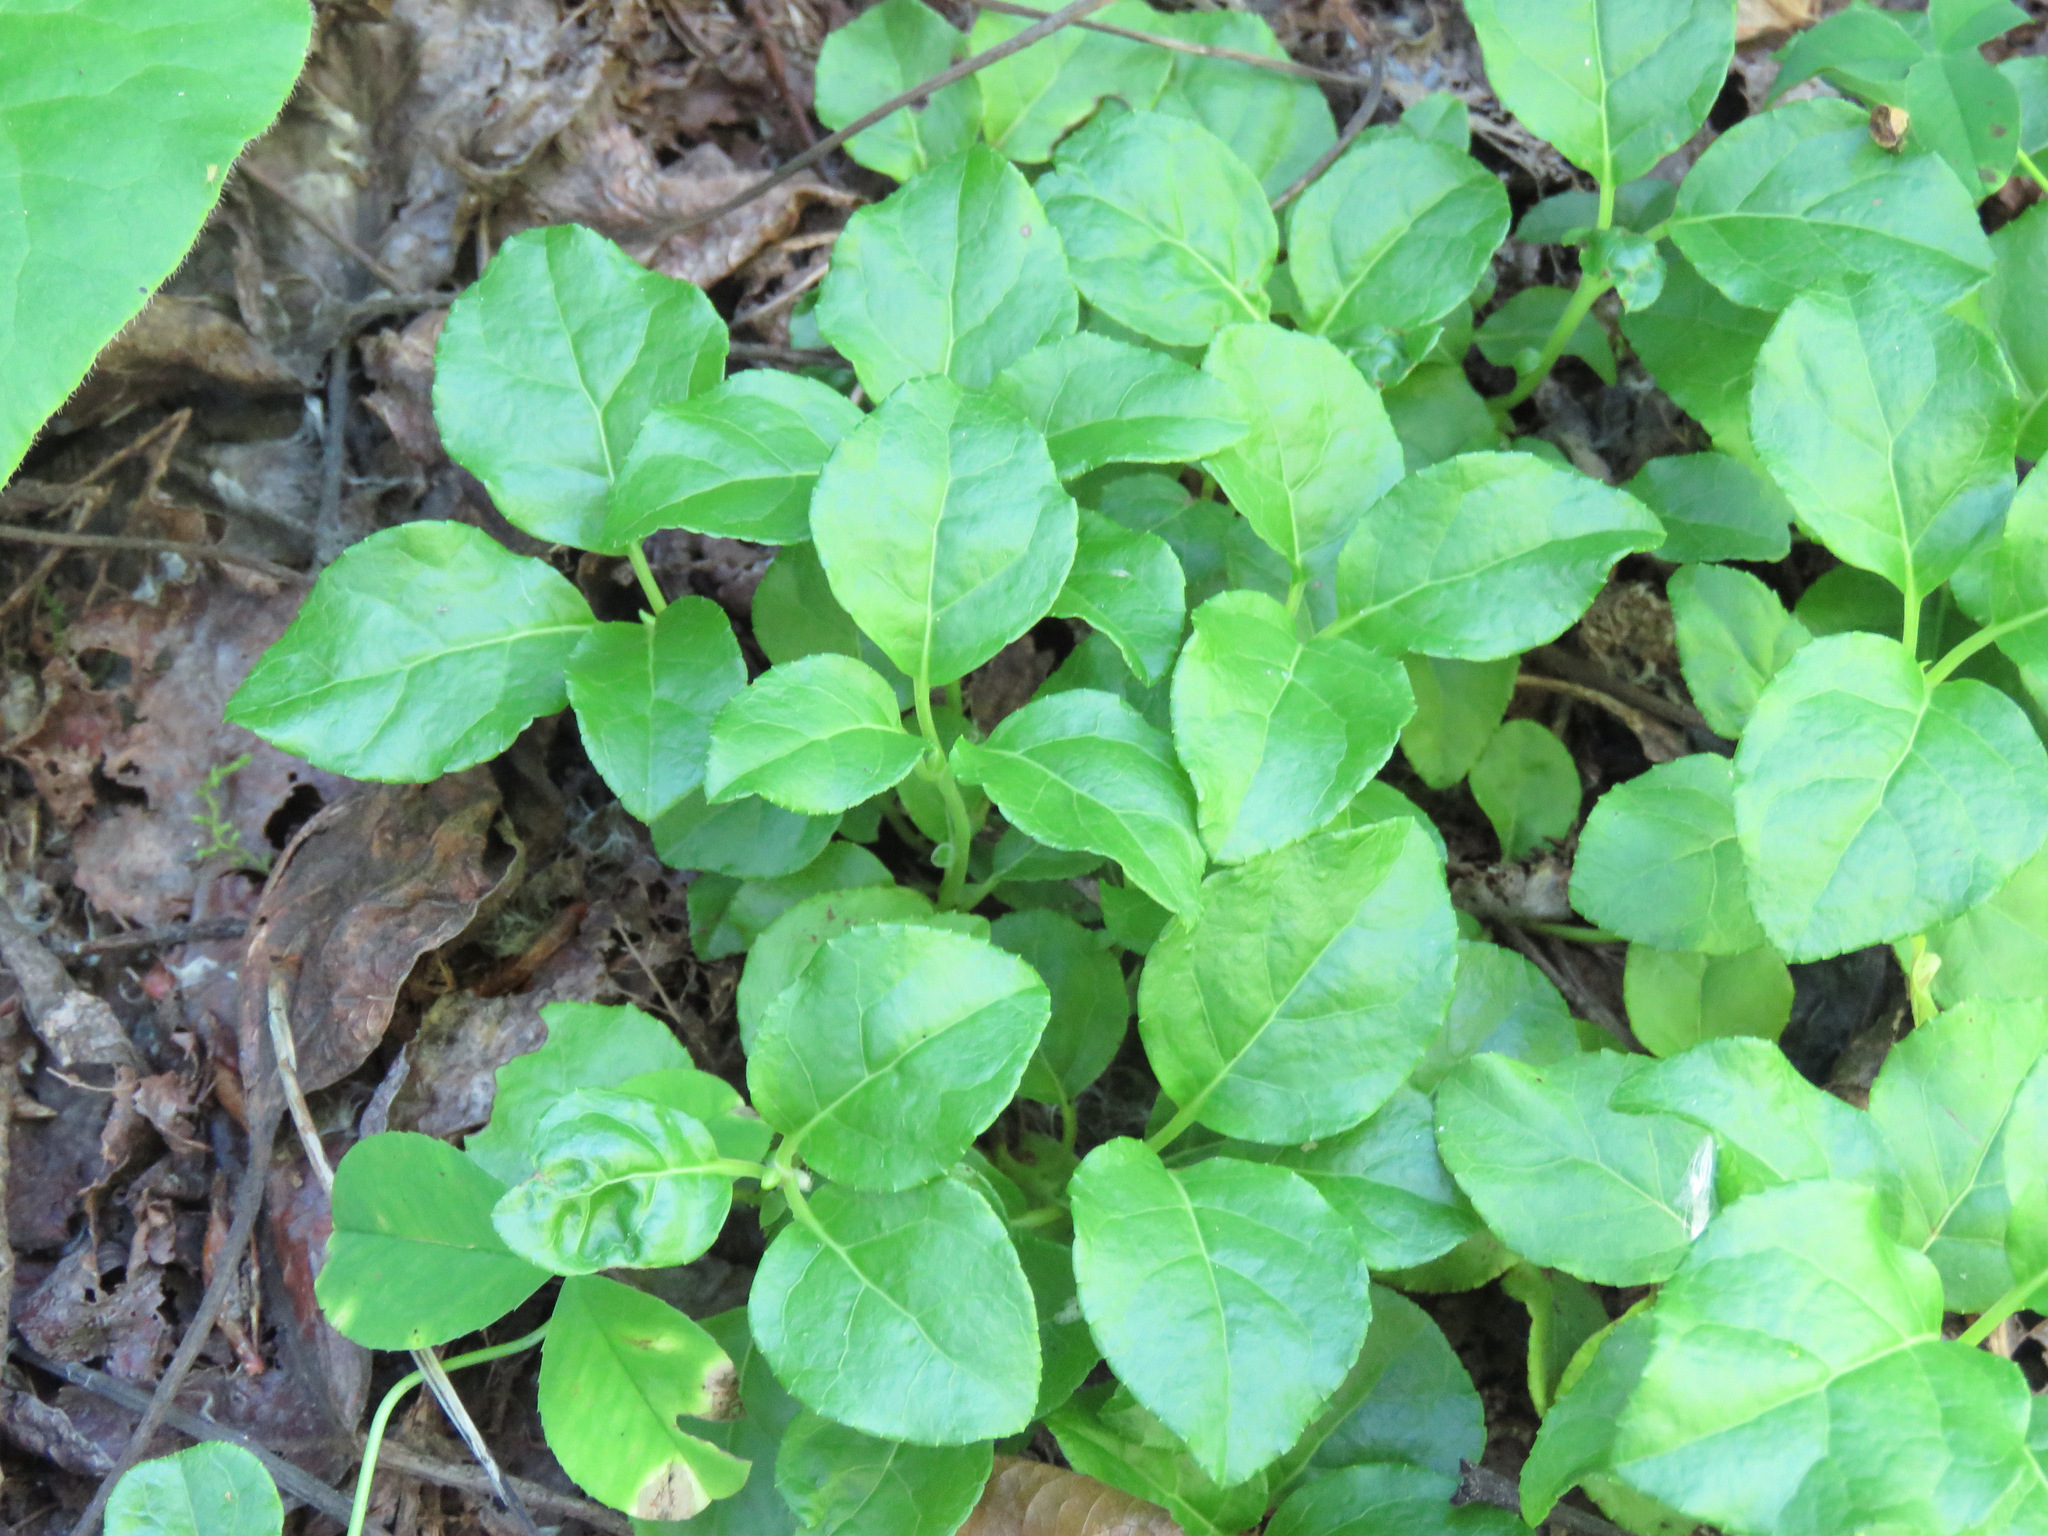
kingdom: Plantae
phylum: Tracheophyta
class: Magnoliopsida
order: Ericales
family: Ericaceae
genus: Orthilia
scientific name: Orthilia secunda
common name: One-sided orthilia
